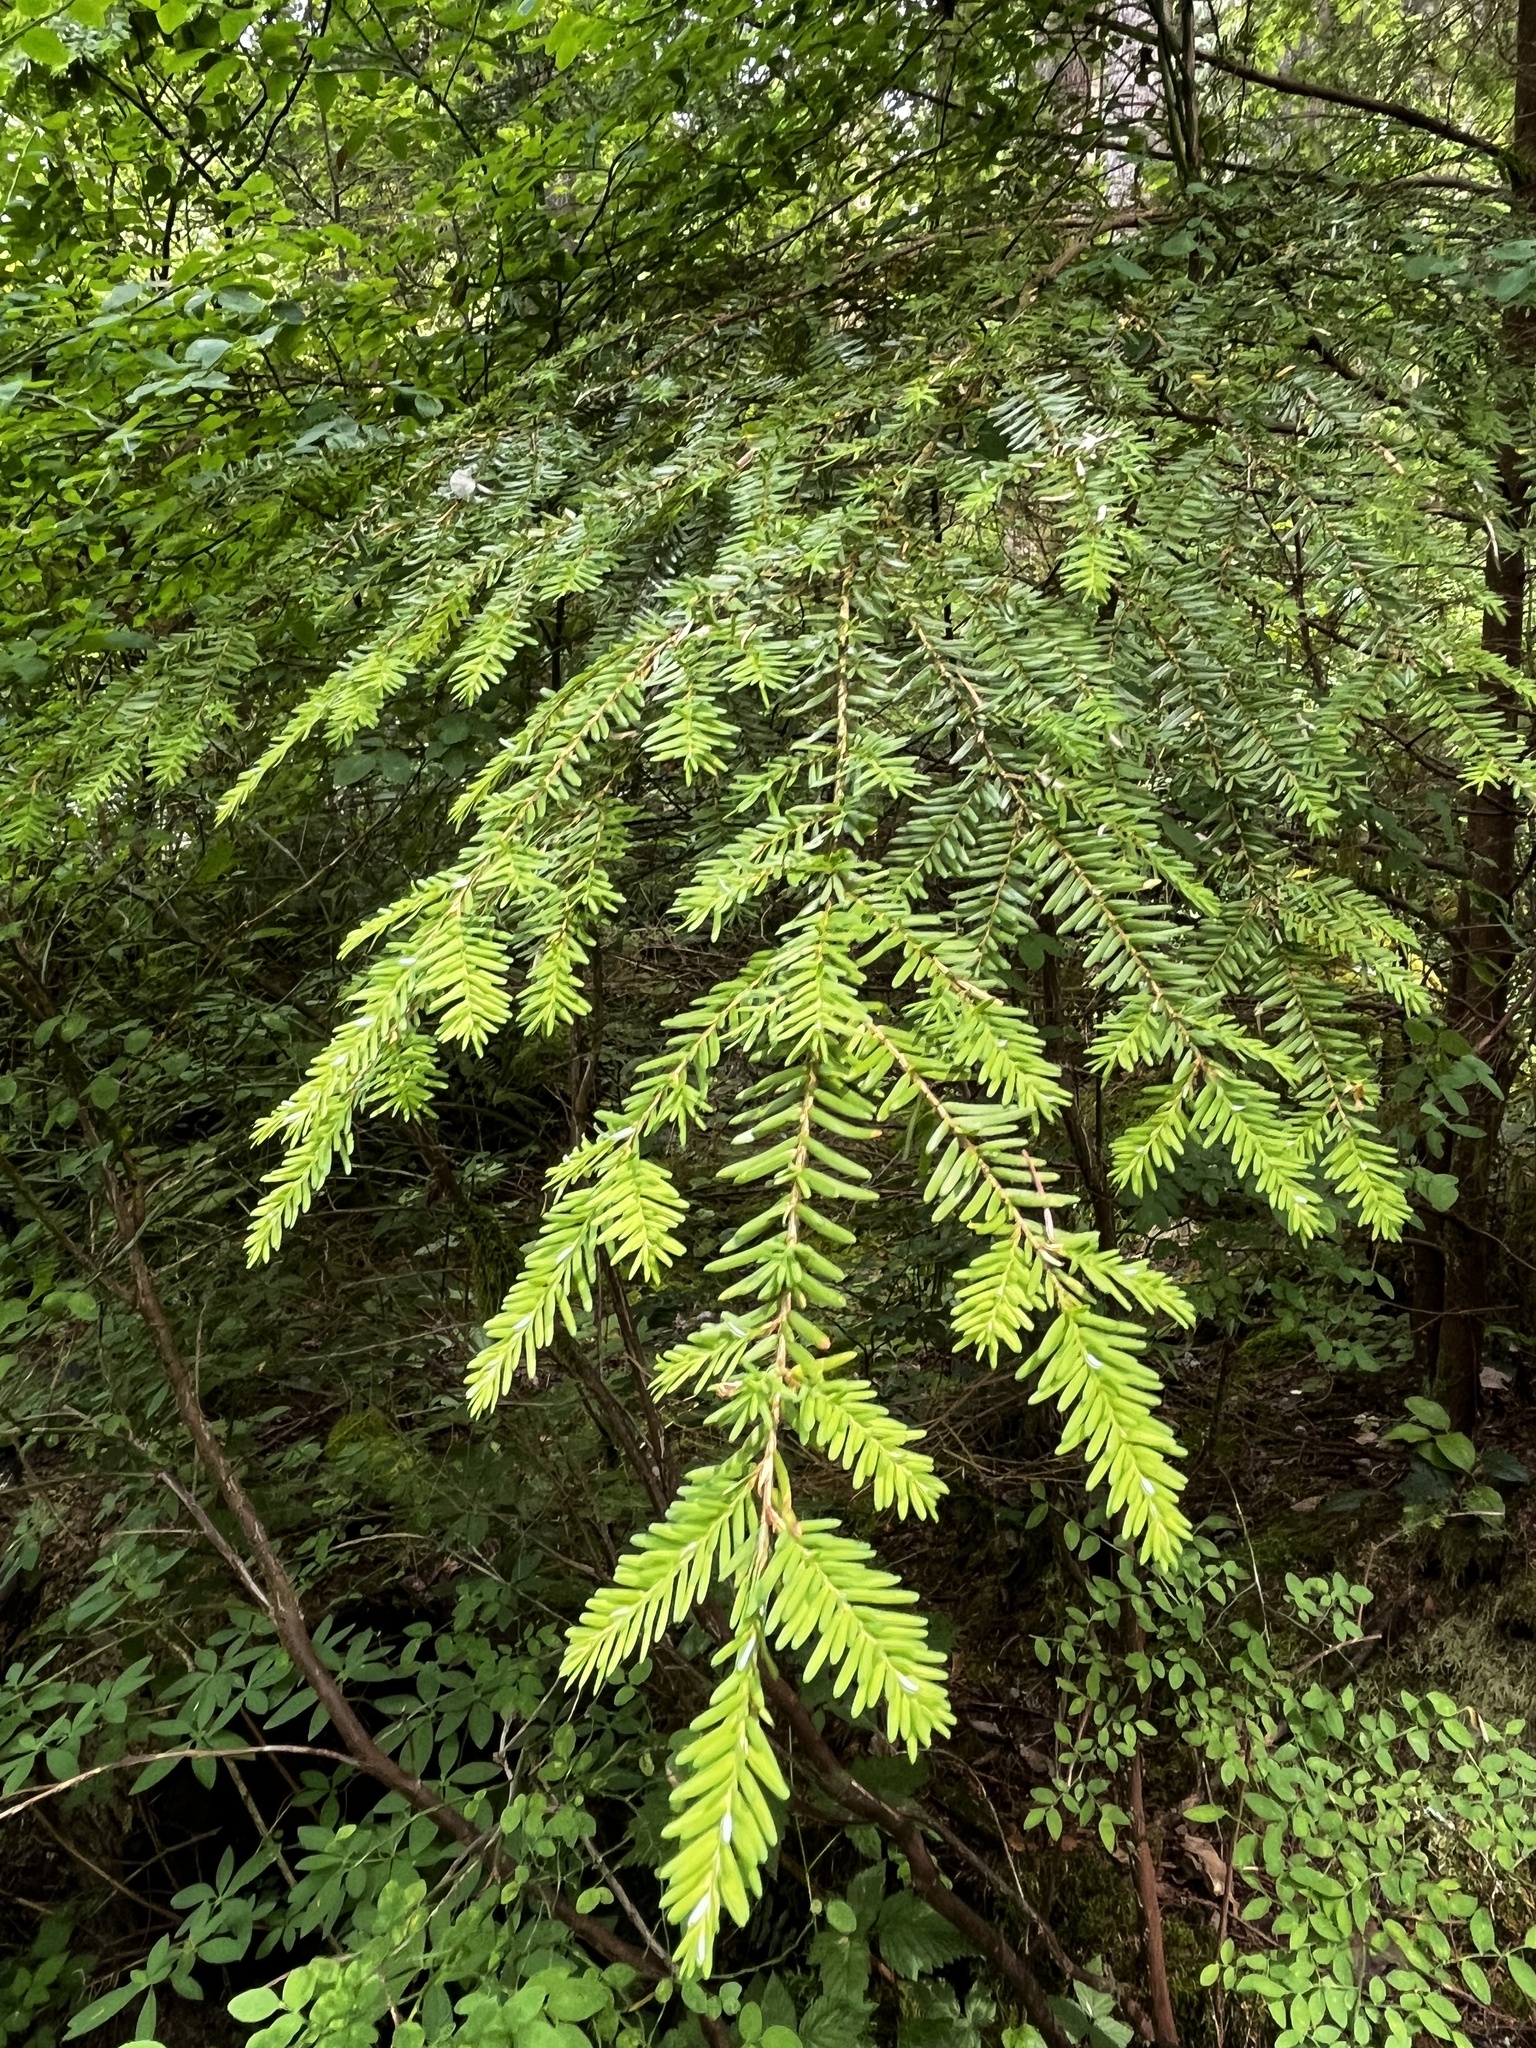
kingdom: Plantae
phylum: Tracheophyta
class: Pinopsida
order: Pinales
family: Pinaceae
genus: Tsuga
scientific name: Tsuga heterophylla
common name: Western hemlock
